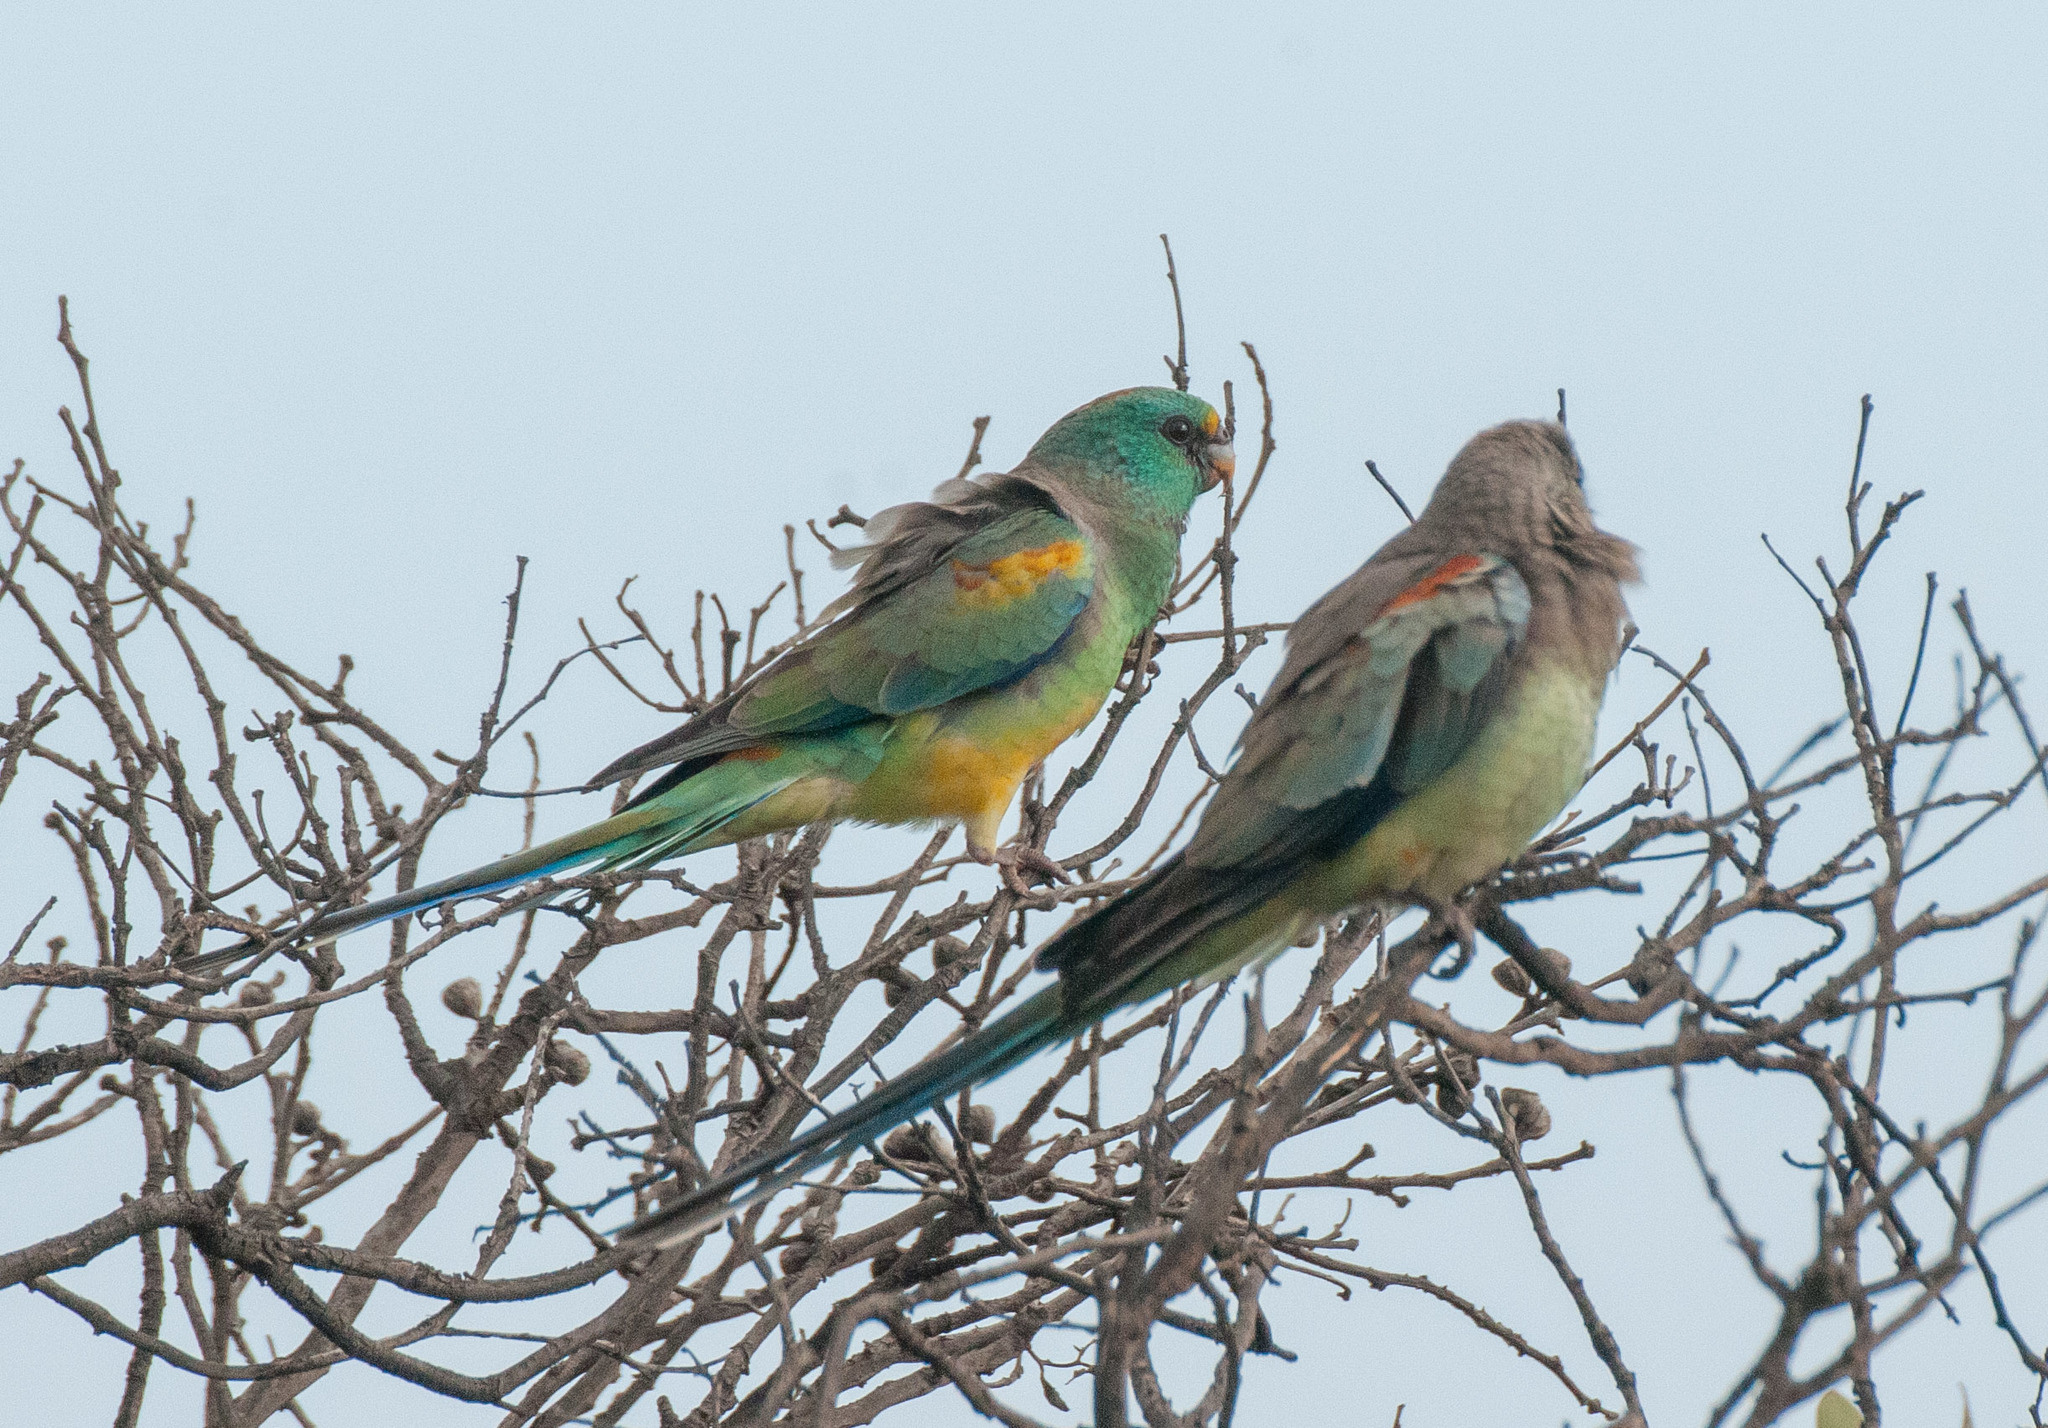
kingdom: Animalia
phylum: Chordata
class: Aves
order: Psittaciformes
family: Psittaculidae
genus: Psephotellus
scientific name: Psephotellus varius
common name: Mulga parrot
